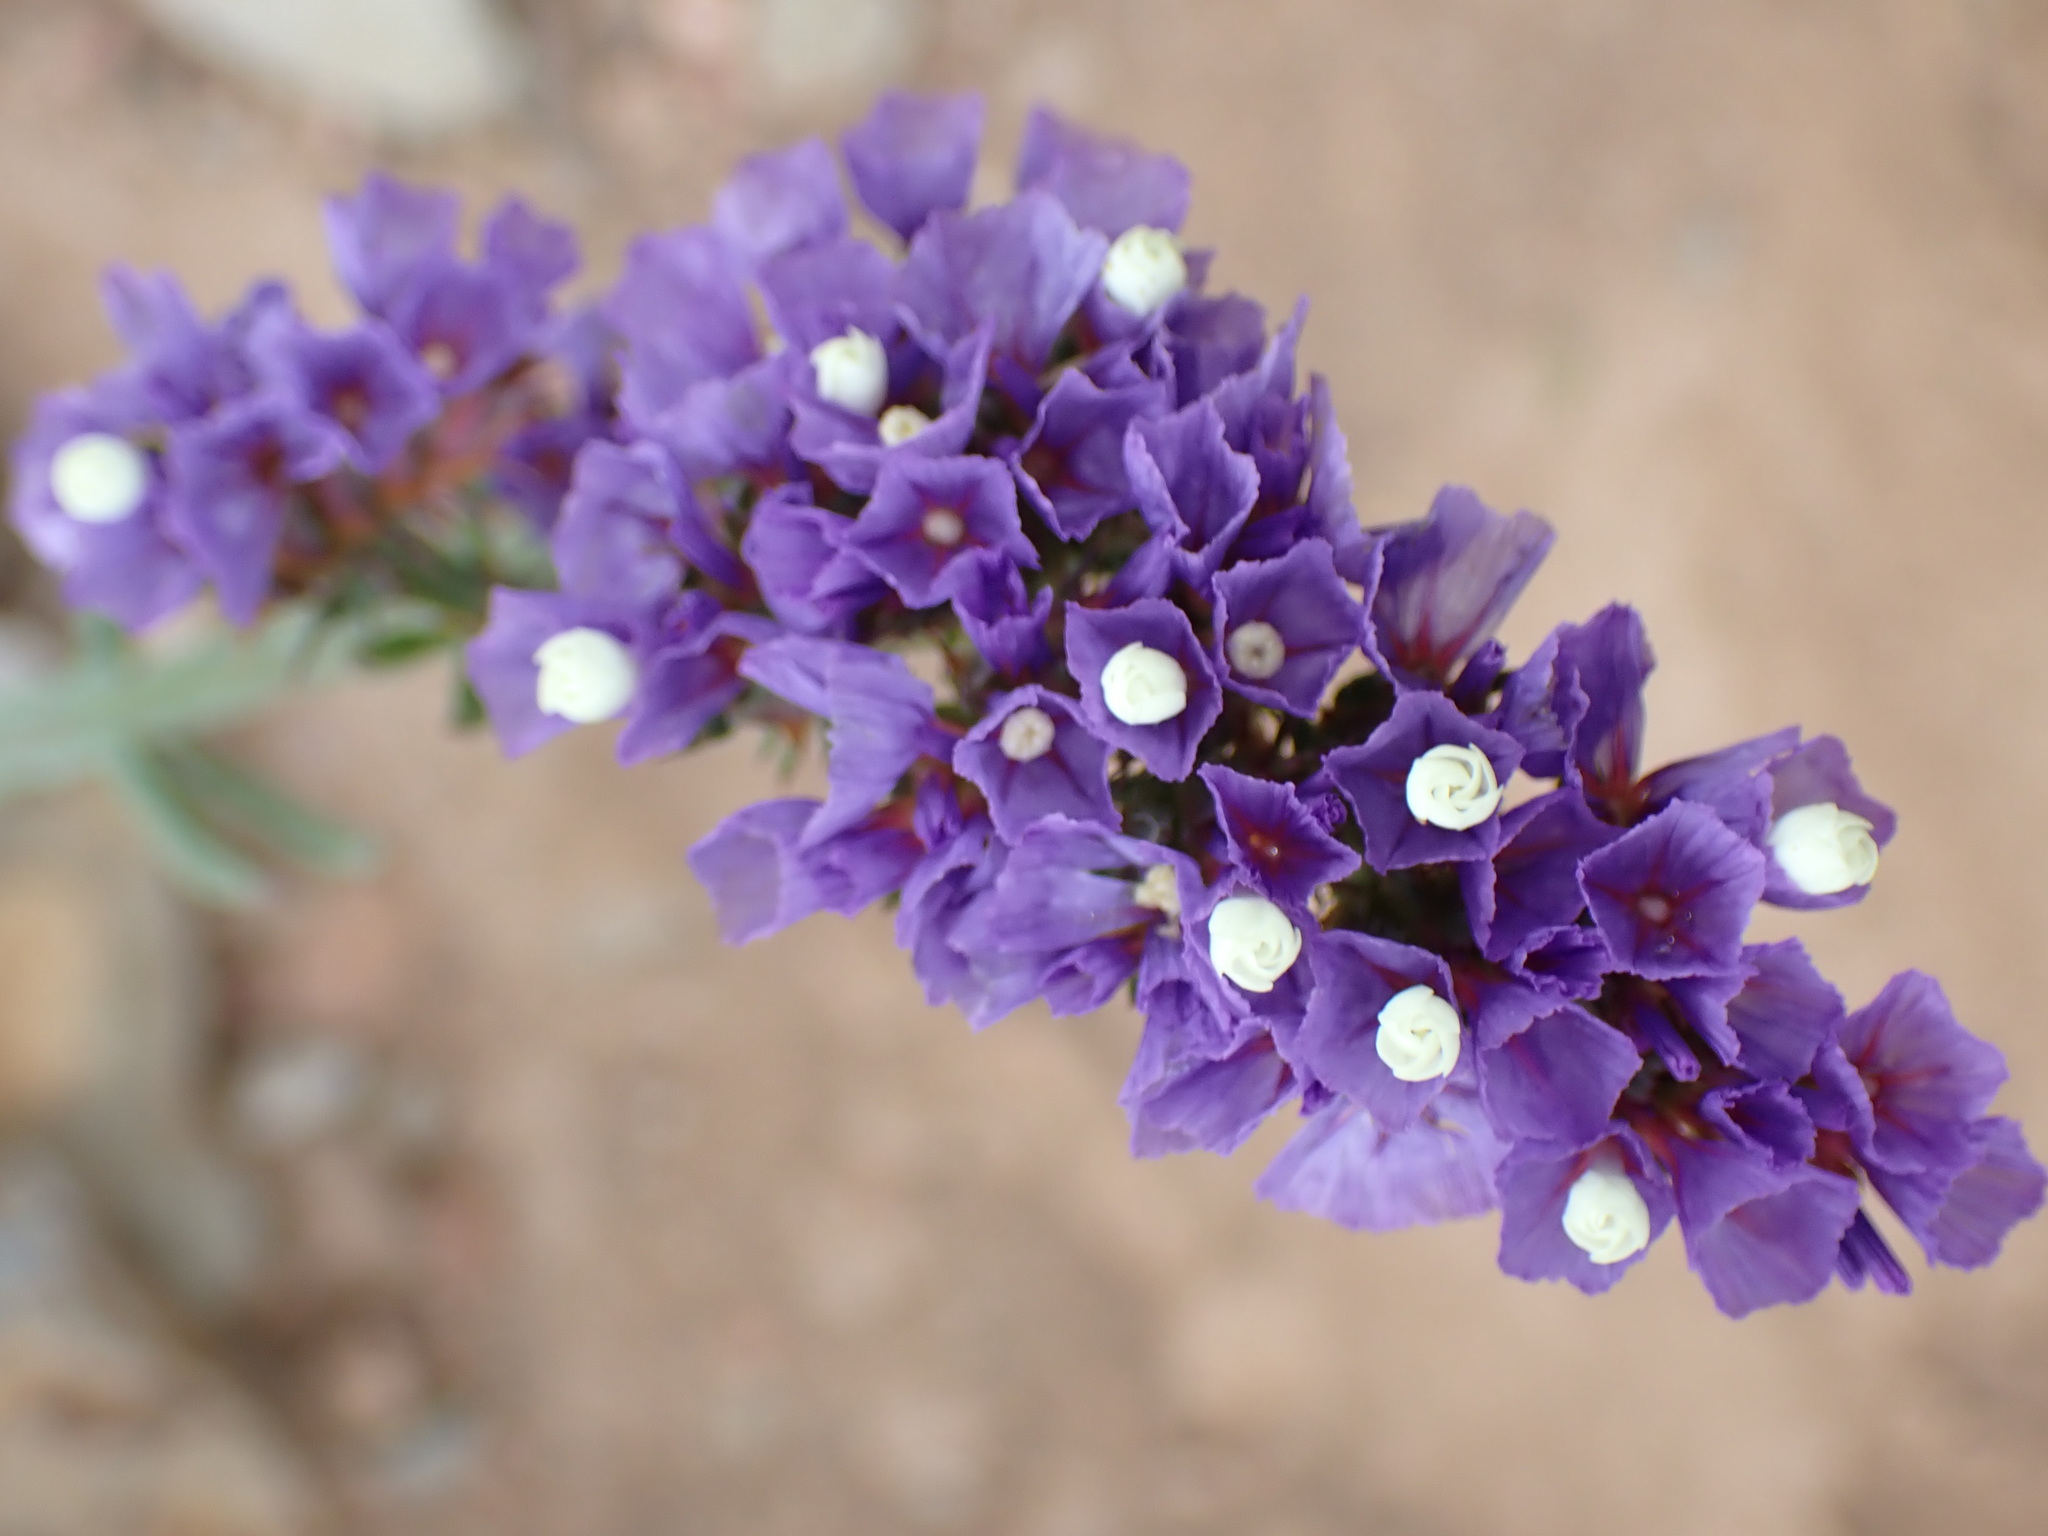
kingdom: Plantae
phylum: Tracheophyta
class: Magnoliopsida
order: Caryophyllales
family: Plumbaginaceae
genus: Limonium
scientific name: Limonium sinuatum
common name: Statice
